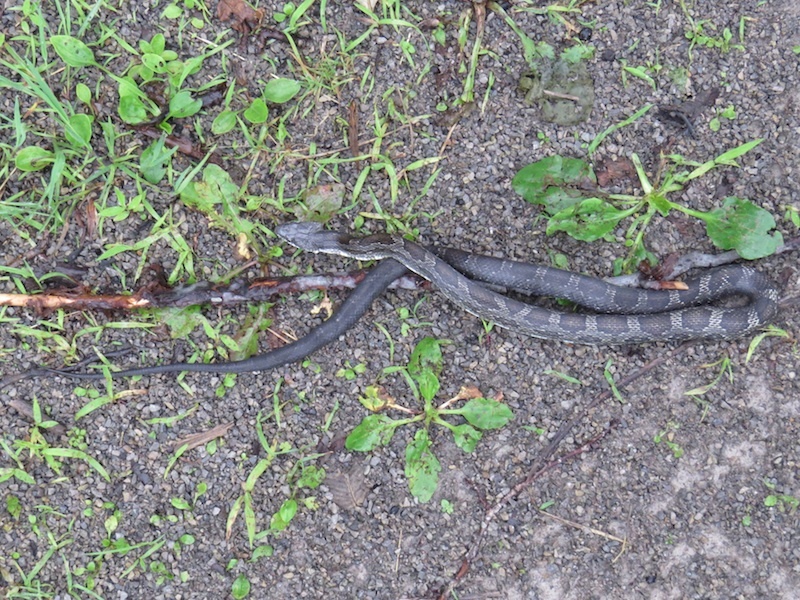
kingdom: Animalia
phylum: Chordata
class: Squamata
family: Colubridae
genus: Pantherophis
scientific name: Pantherophis
